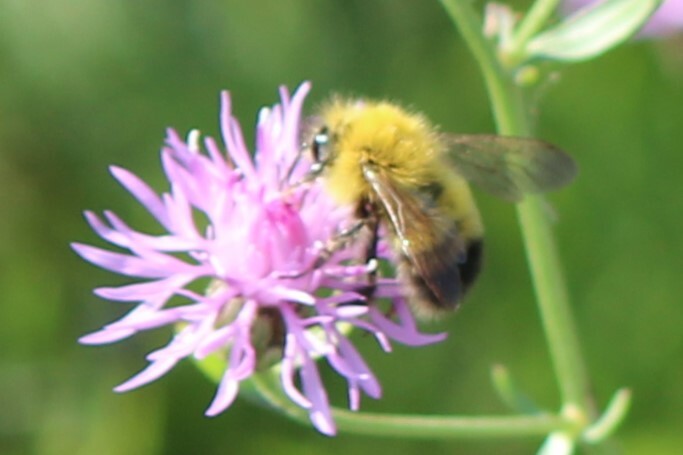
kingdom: Animalia
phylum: Arthropoda
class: Insecta
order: Hymenoptera
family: Apidae
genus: Bombus
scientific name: Bombus perplexus
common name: Confusing bumble bee
